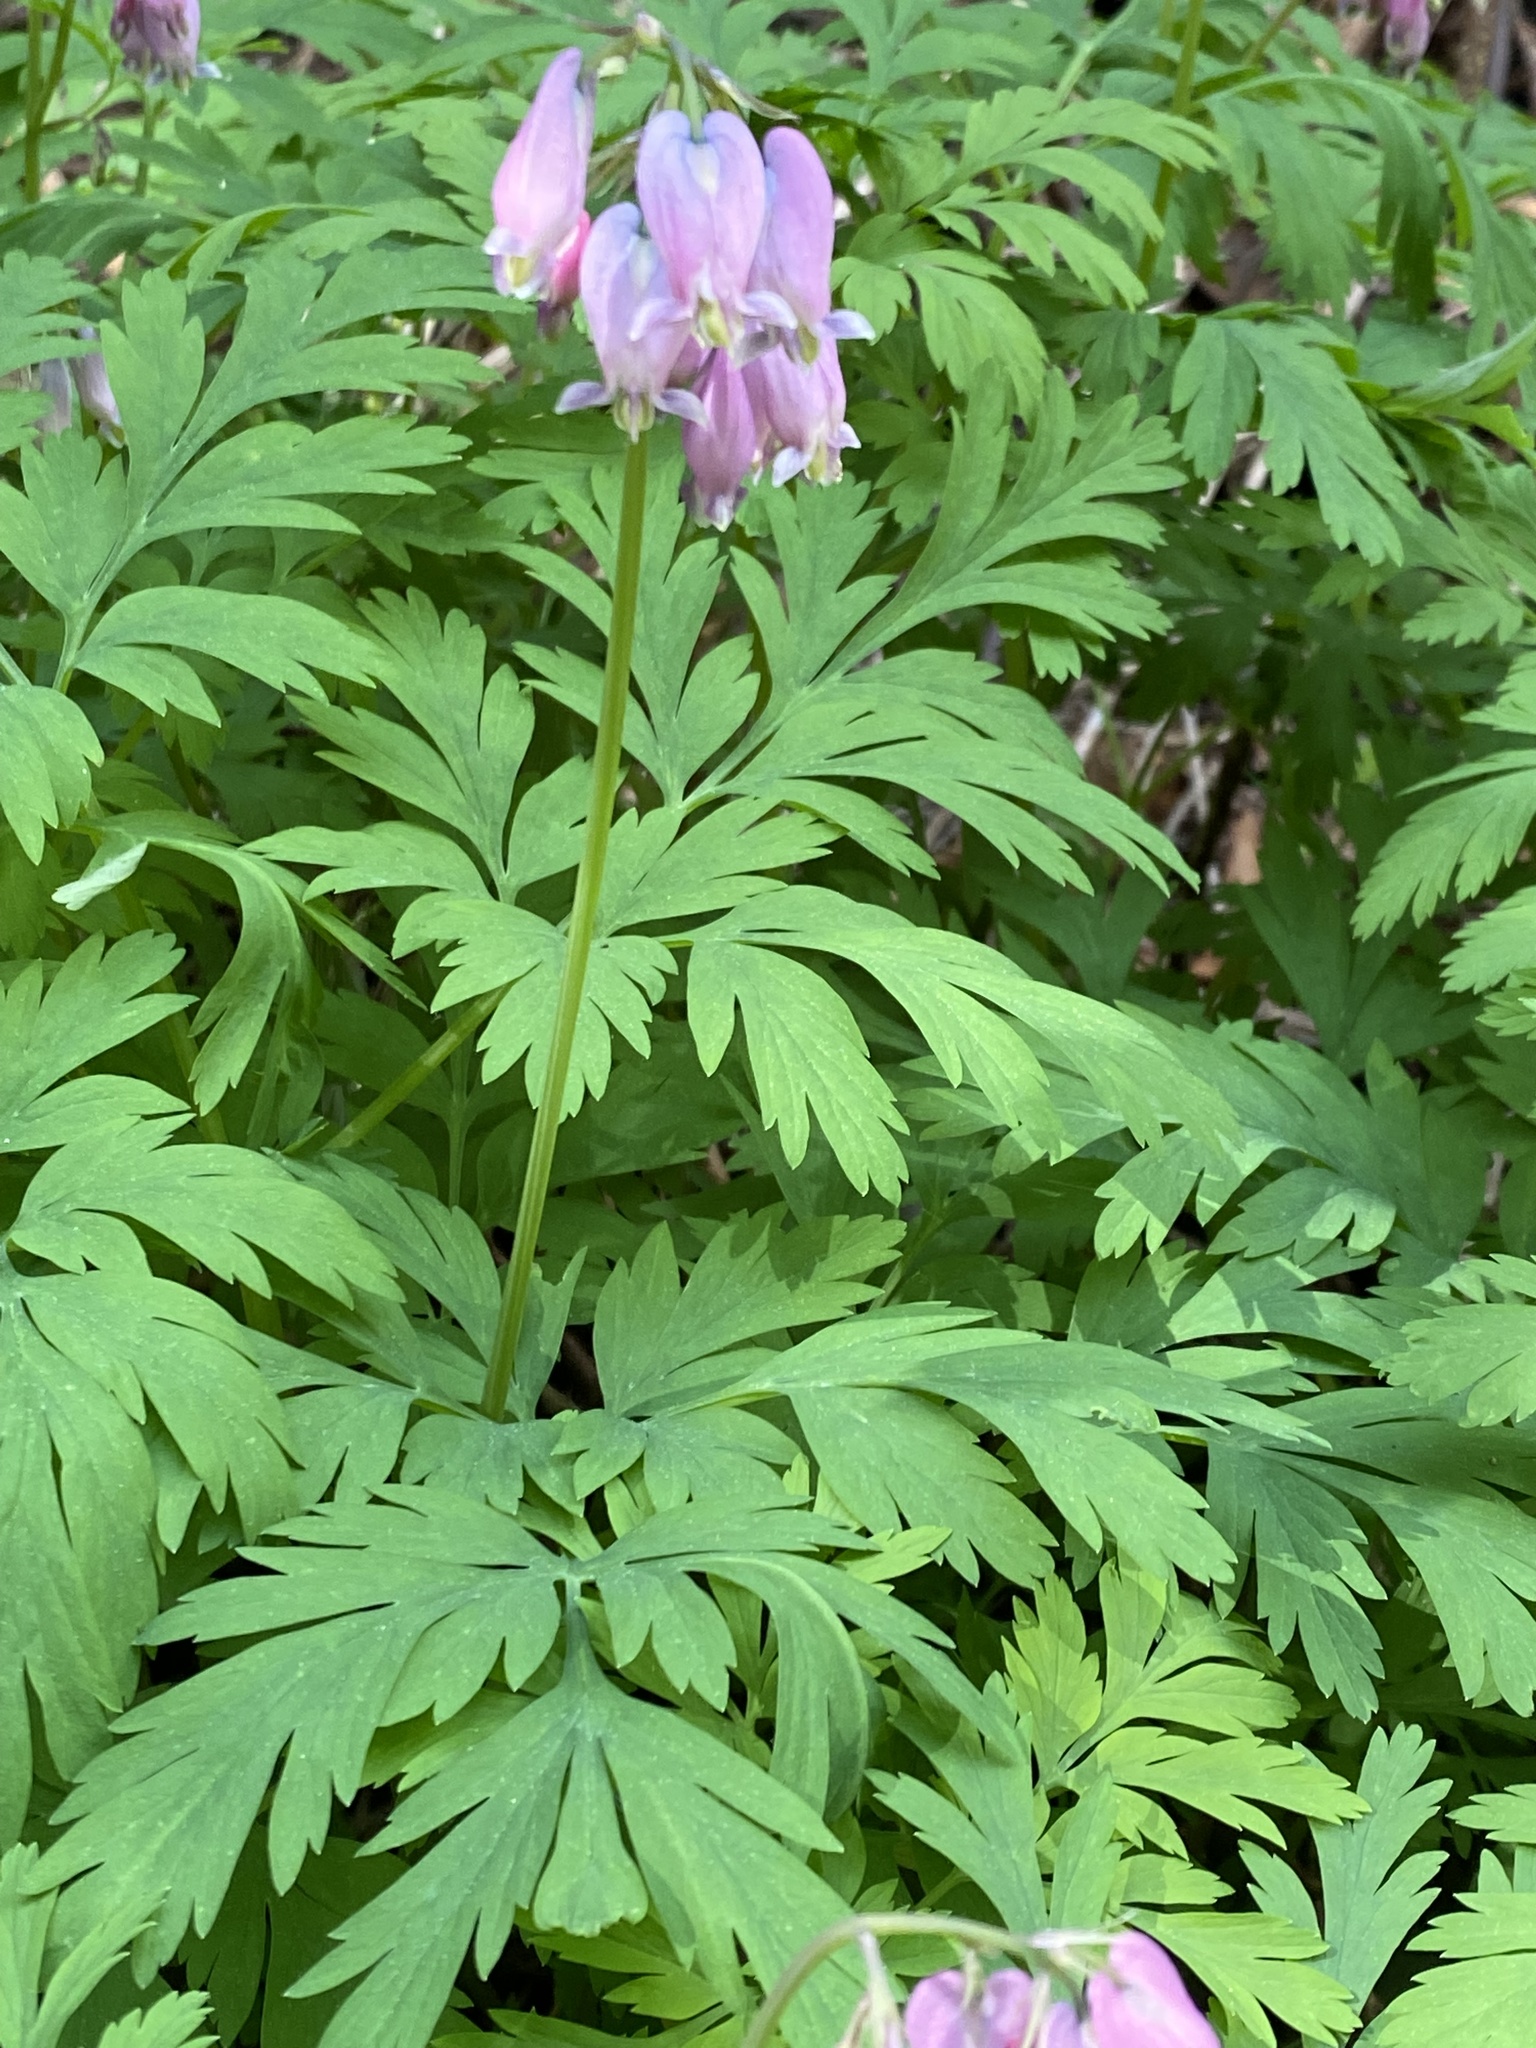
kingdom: Plantae
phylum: Tracheophyta
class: Magnoliopsida
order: Ranunculales
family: Papaveraceae
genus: Dicentra
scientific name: Dicentra formosa
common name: Bleeding-heart
